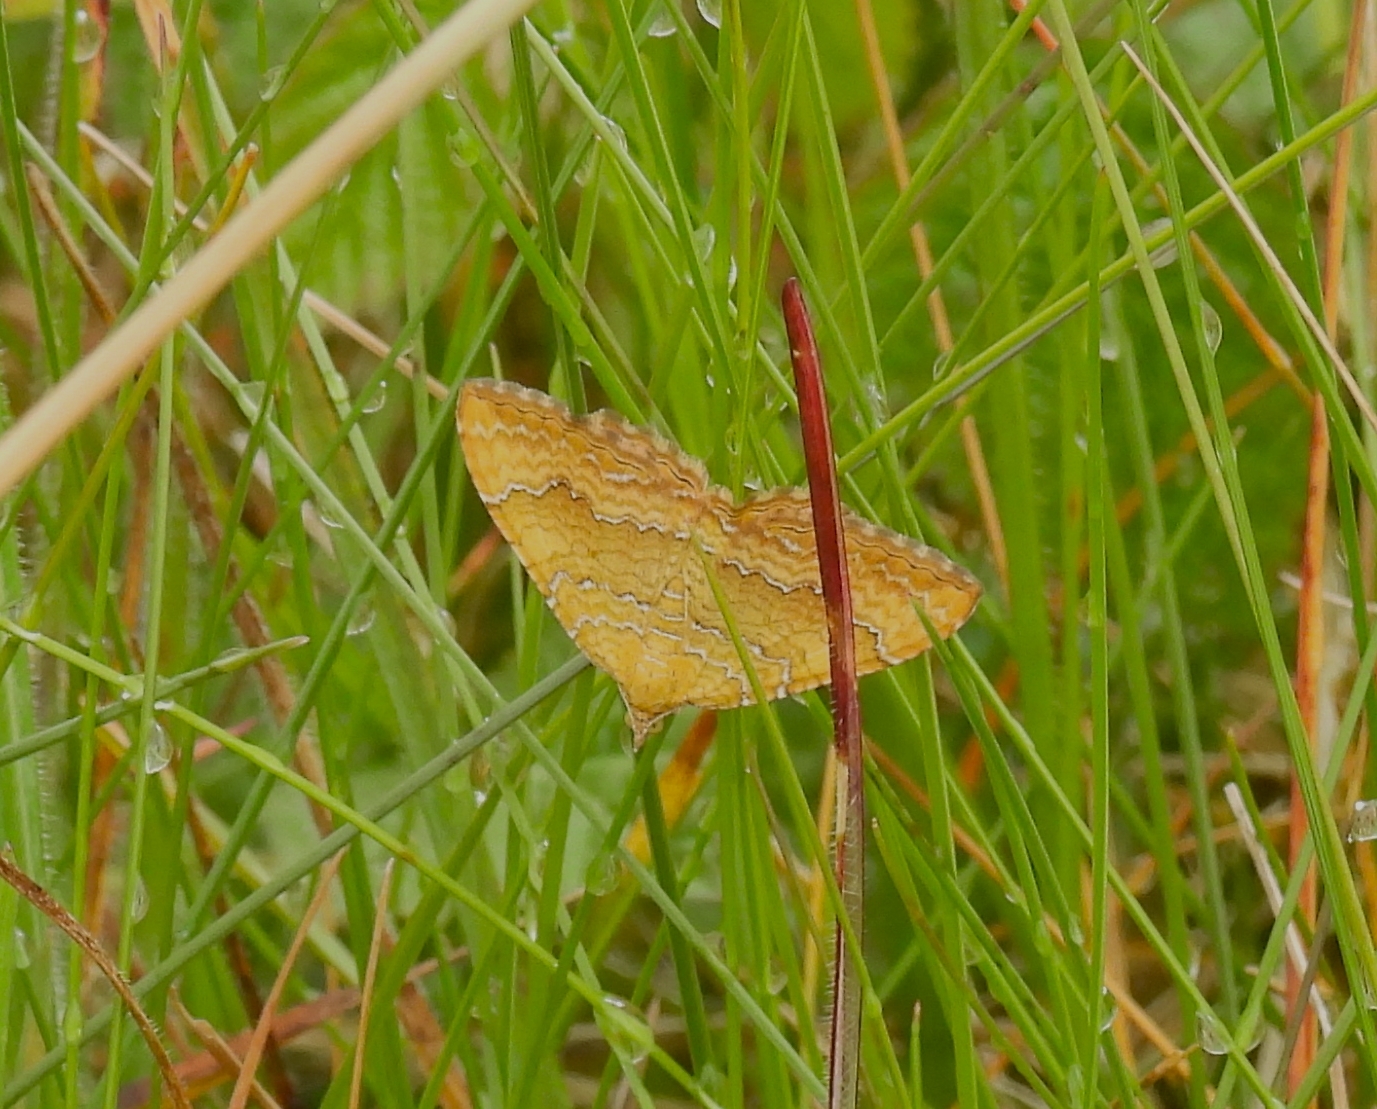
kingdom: Animalia
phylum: Arthropoda
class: Insecta
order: Lepidoptera
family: Geometridae
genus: Camptogramma
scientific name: Camptogramma bilineata
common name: Yellow shell
